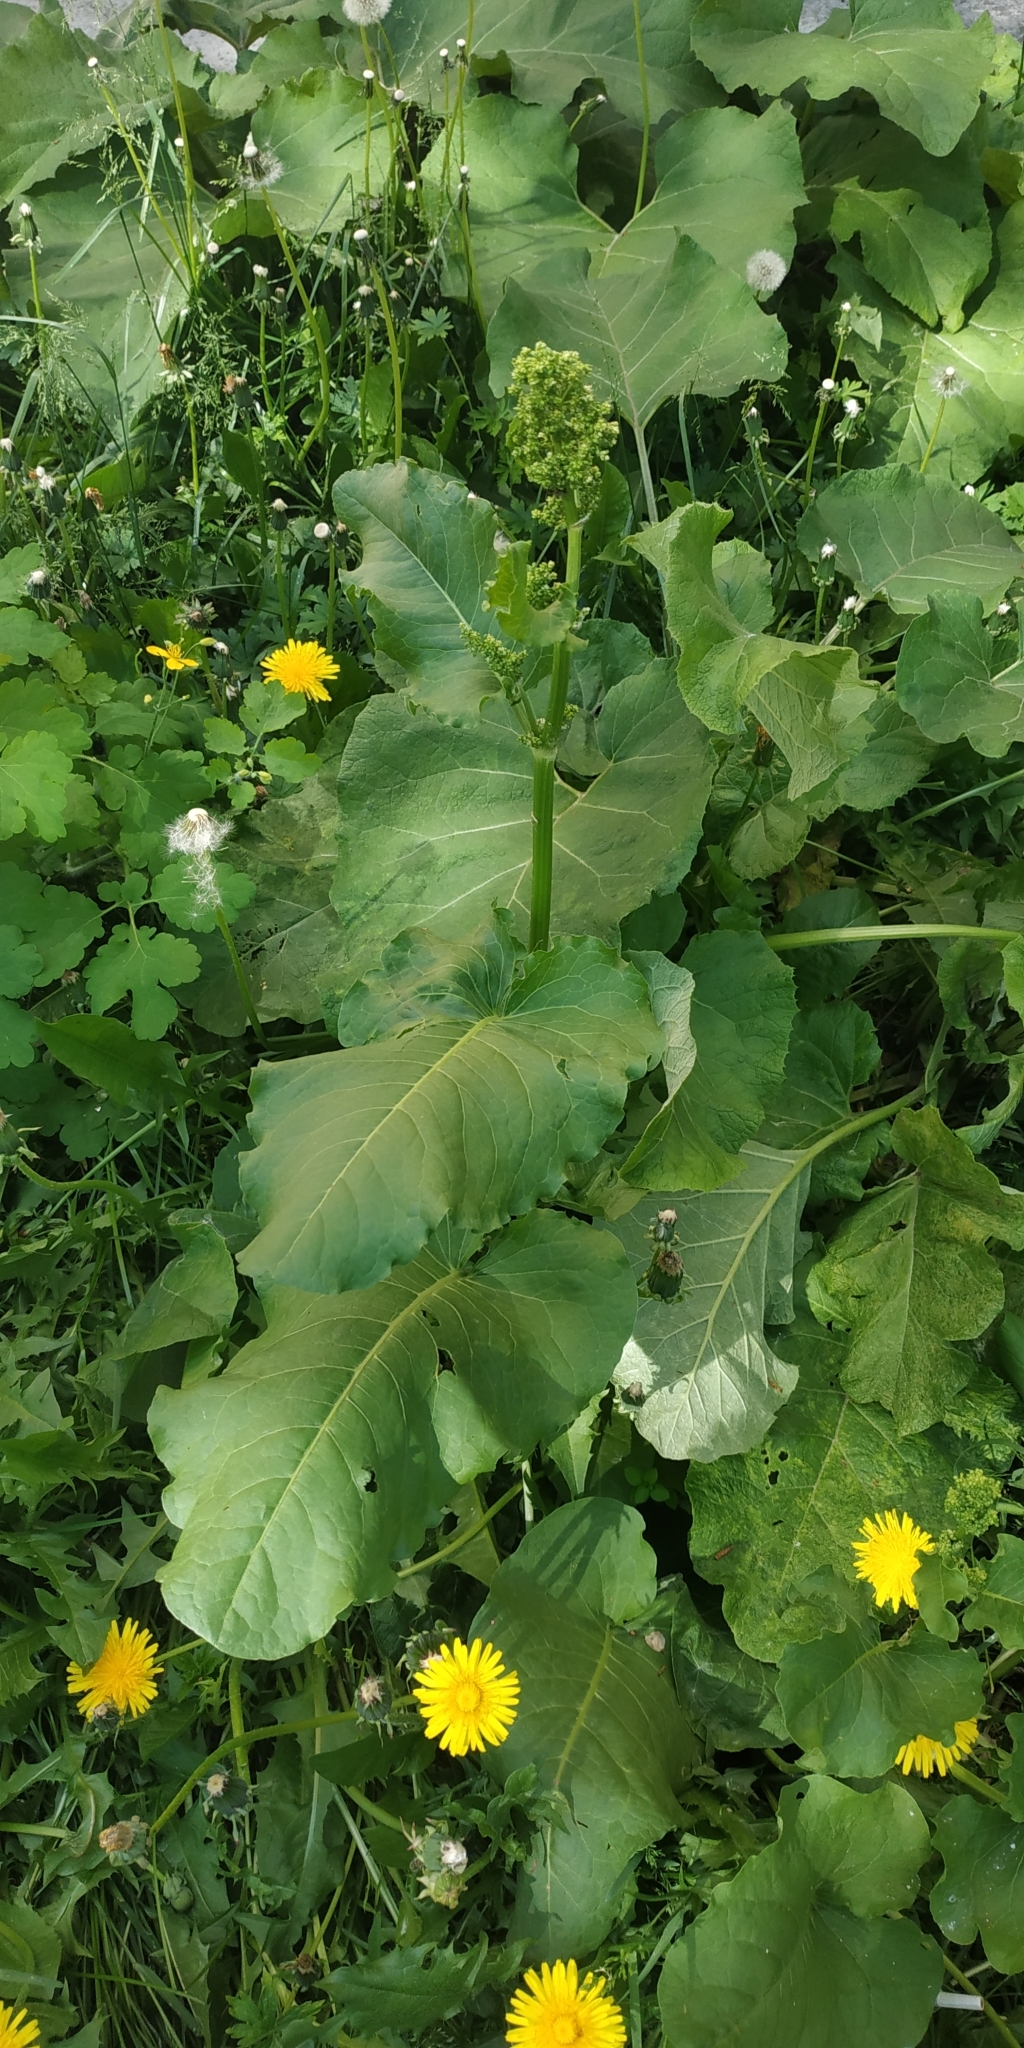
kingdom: Plantae
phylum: Tracheophyta
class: Magnoliopsida
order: Caryophyllales
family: Polygonaceae
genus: Rumex
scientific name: Rumex confertus
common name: Russian dock
